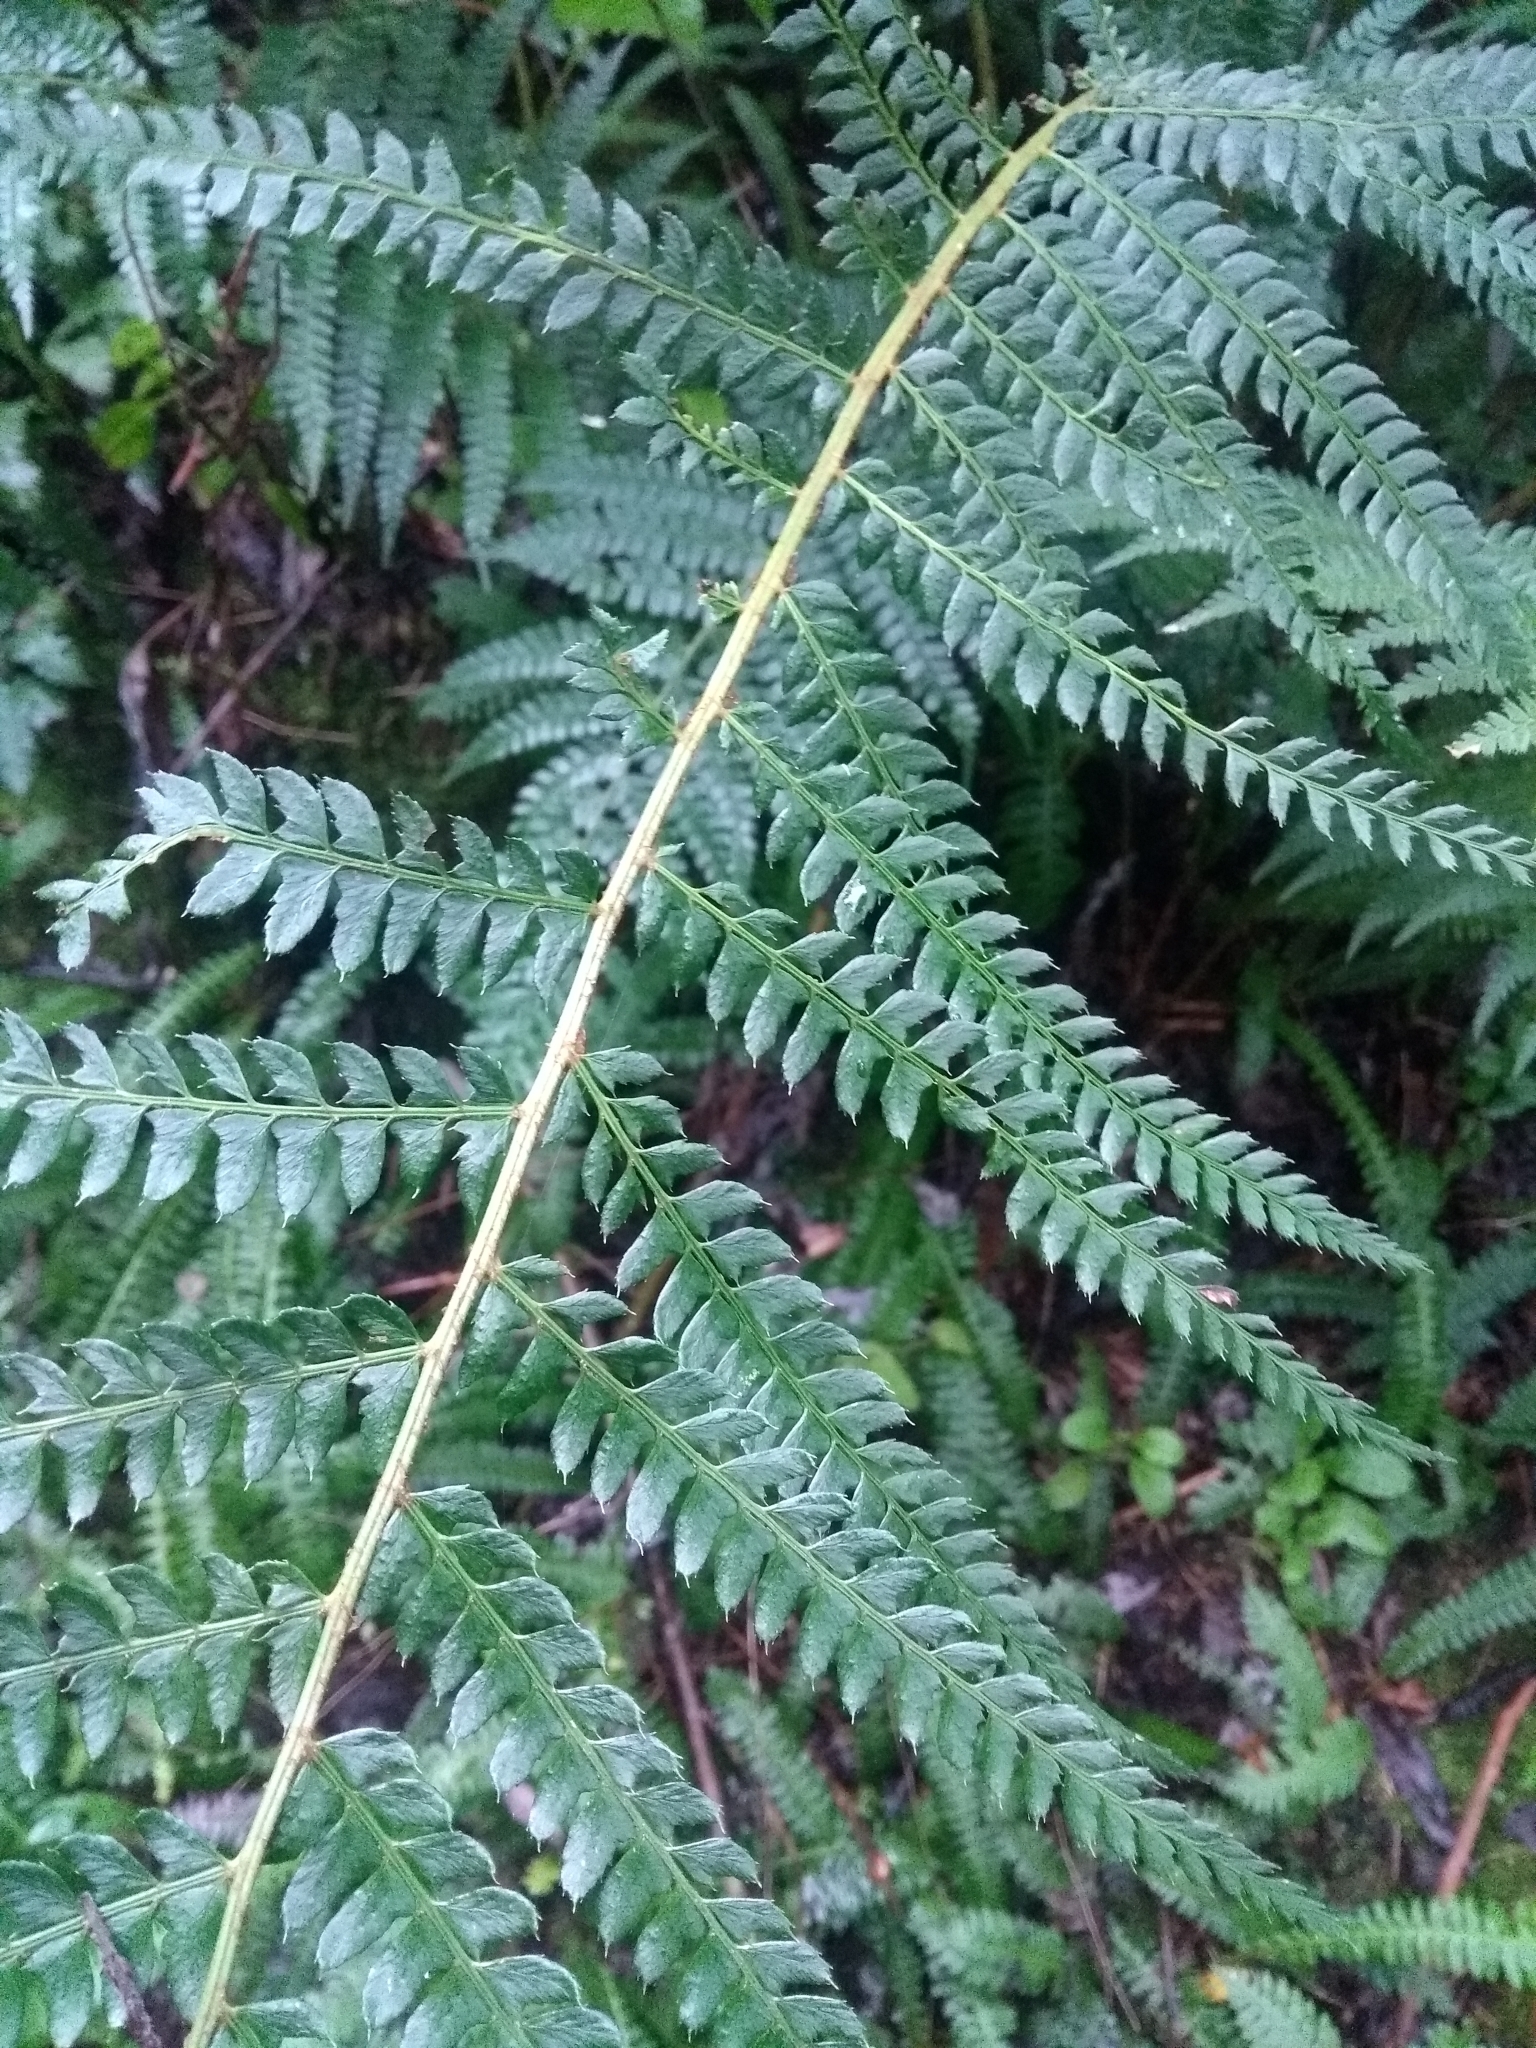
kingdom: Plantae
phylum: Tracheophyta
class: Polypodiopsida
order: Polypodiales
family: Dryopteridaceae
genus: Polystichum
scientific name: Polystichum montevidense
